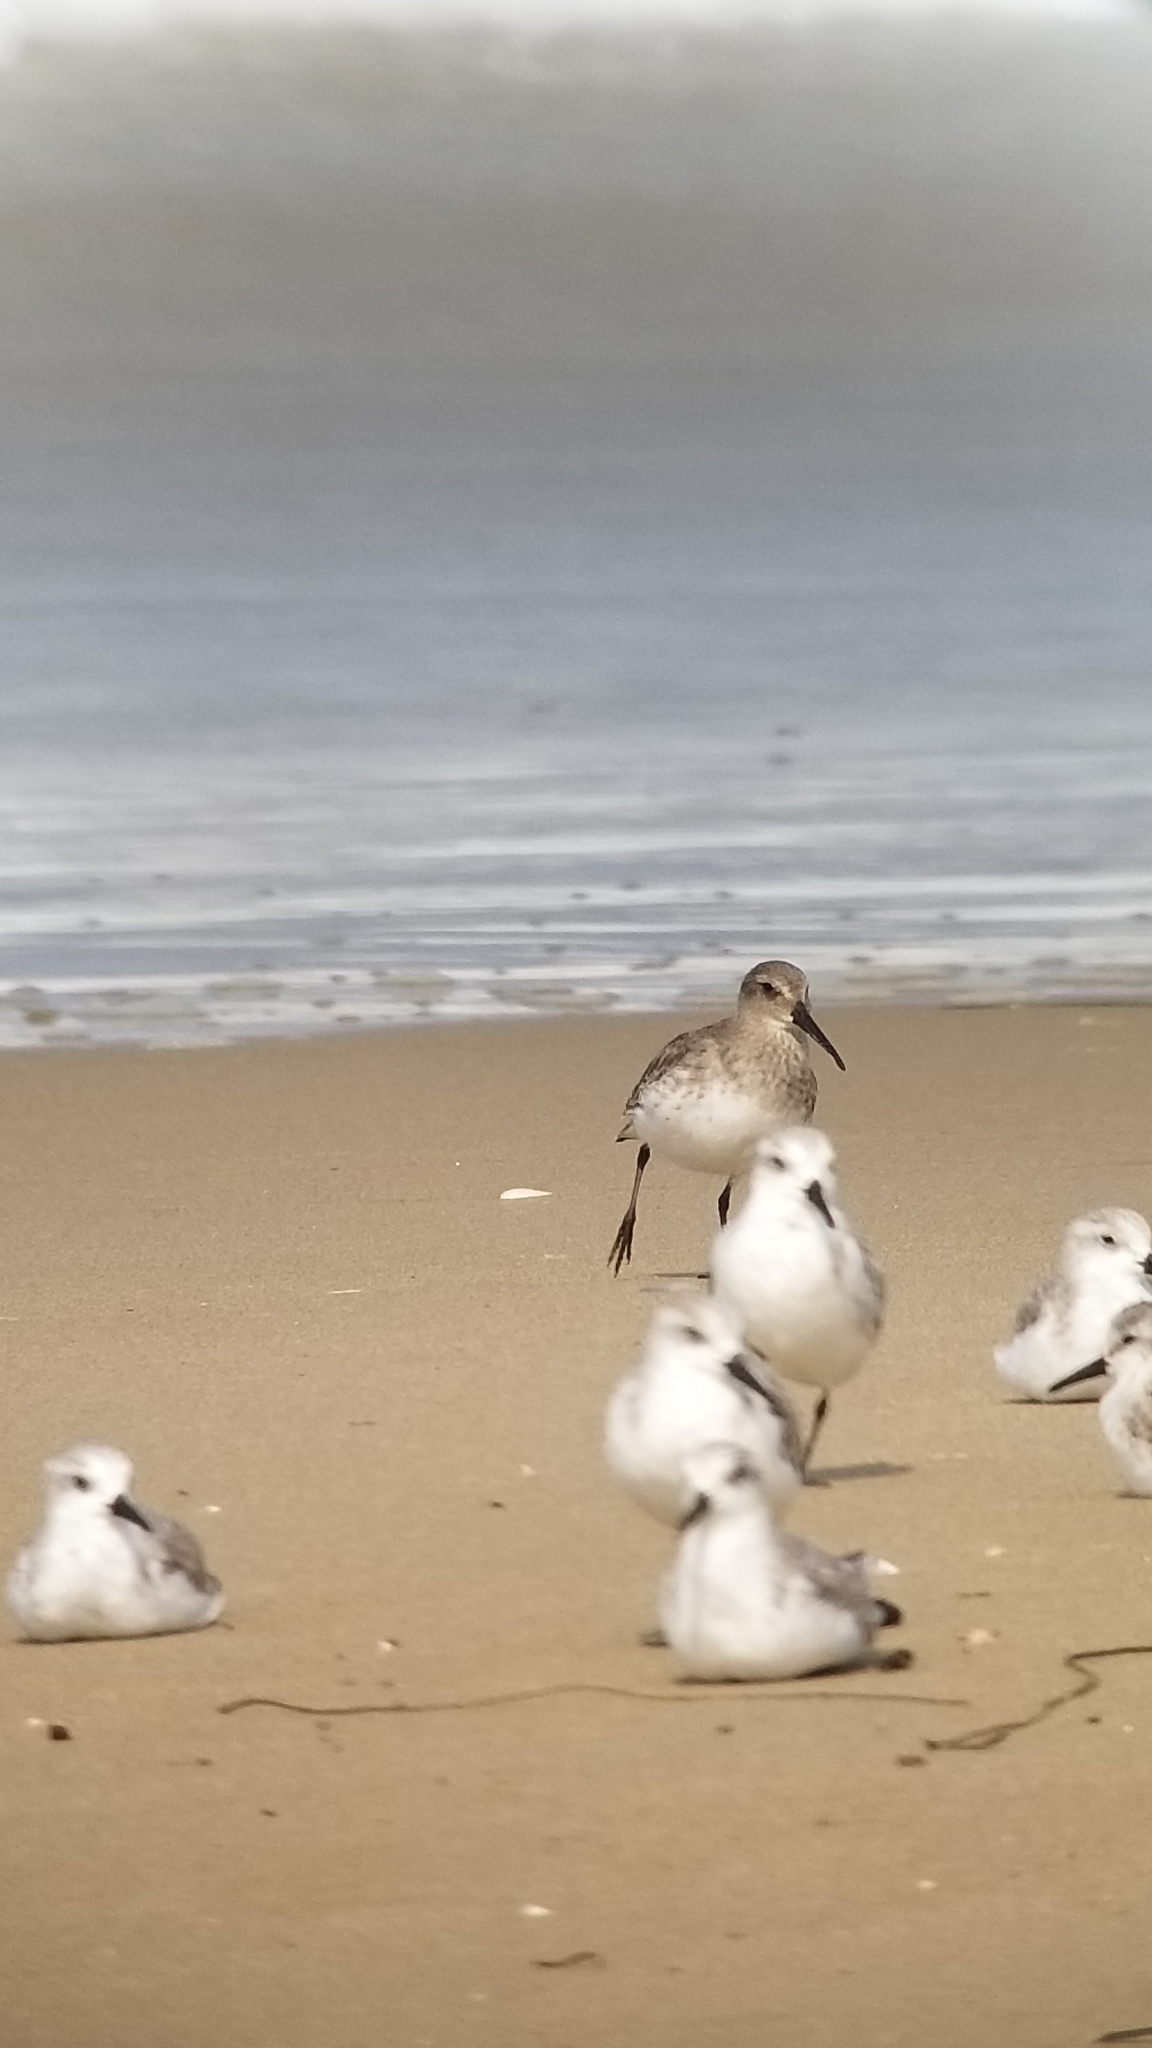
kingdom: Animalia
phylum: Chordata
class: Aves
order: Charadriiformes
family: Scolopacidae
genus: Calidris
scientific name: Calidris alba
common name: Sanderling
